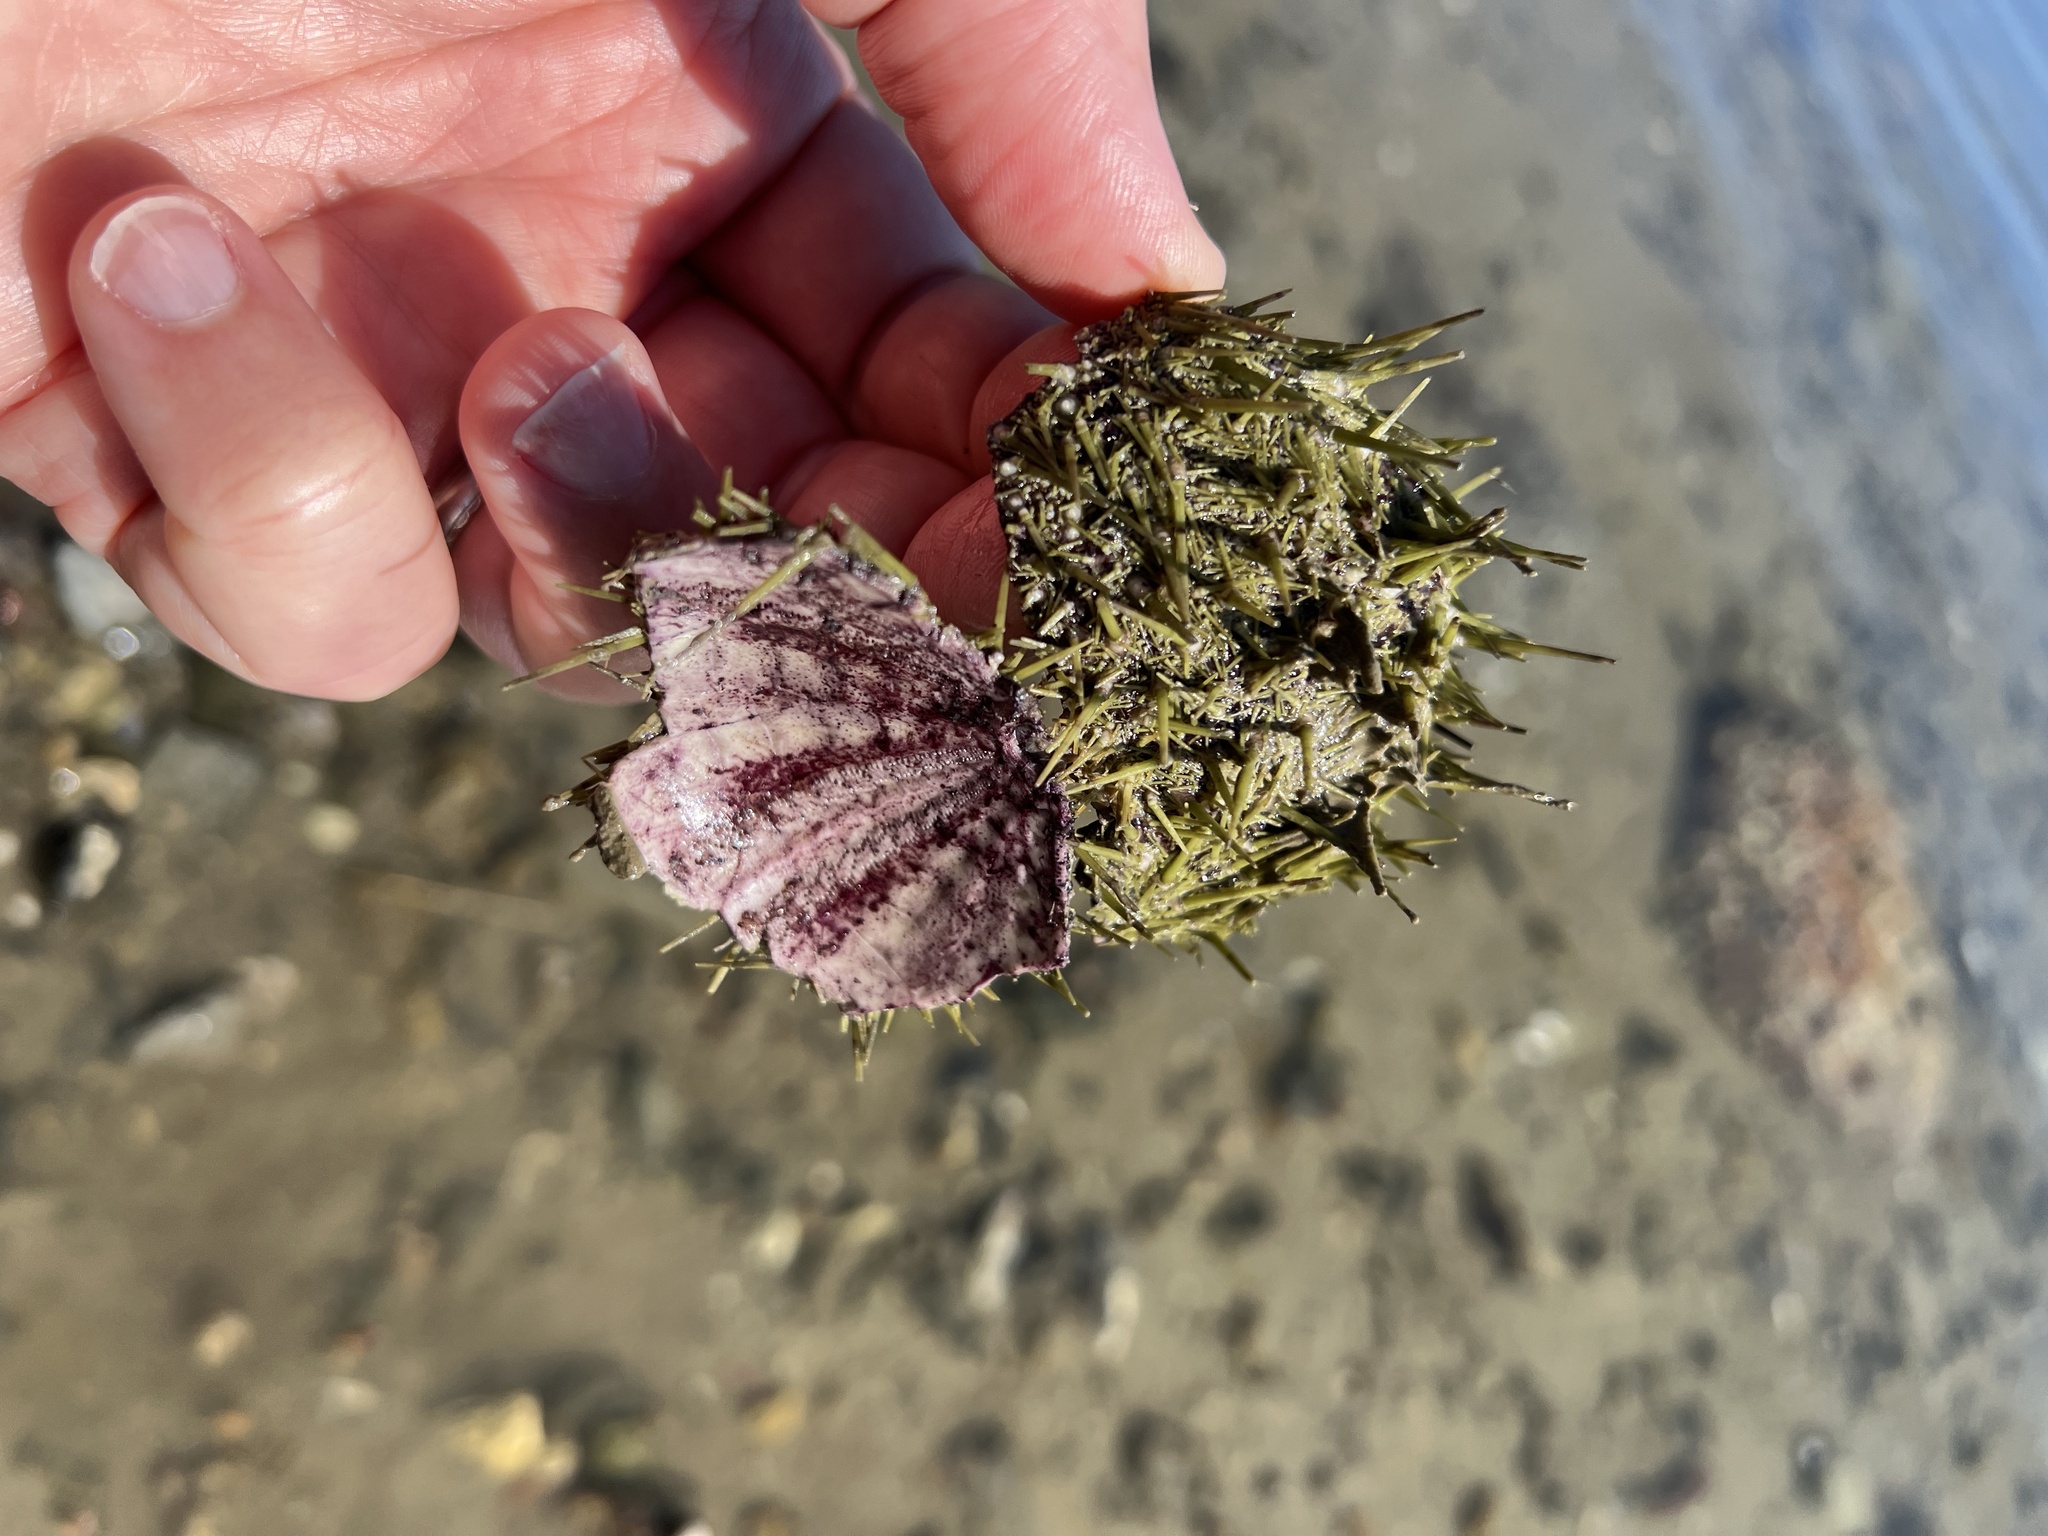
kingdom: Animalia
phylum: Echinodermata
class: Echinoidea
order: Camarodonta
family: Strongylocentrotidae
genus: Strongylocentrotus
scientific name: Strongylocentrotus droebachiensis
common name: Northern sea urchin
